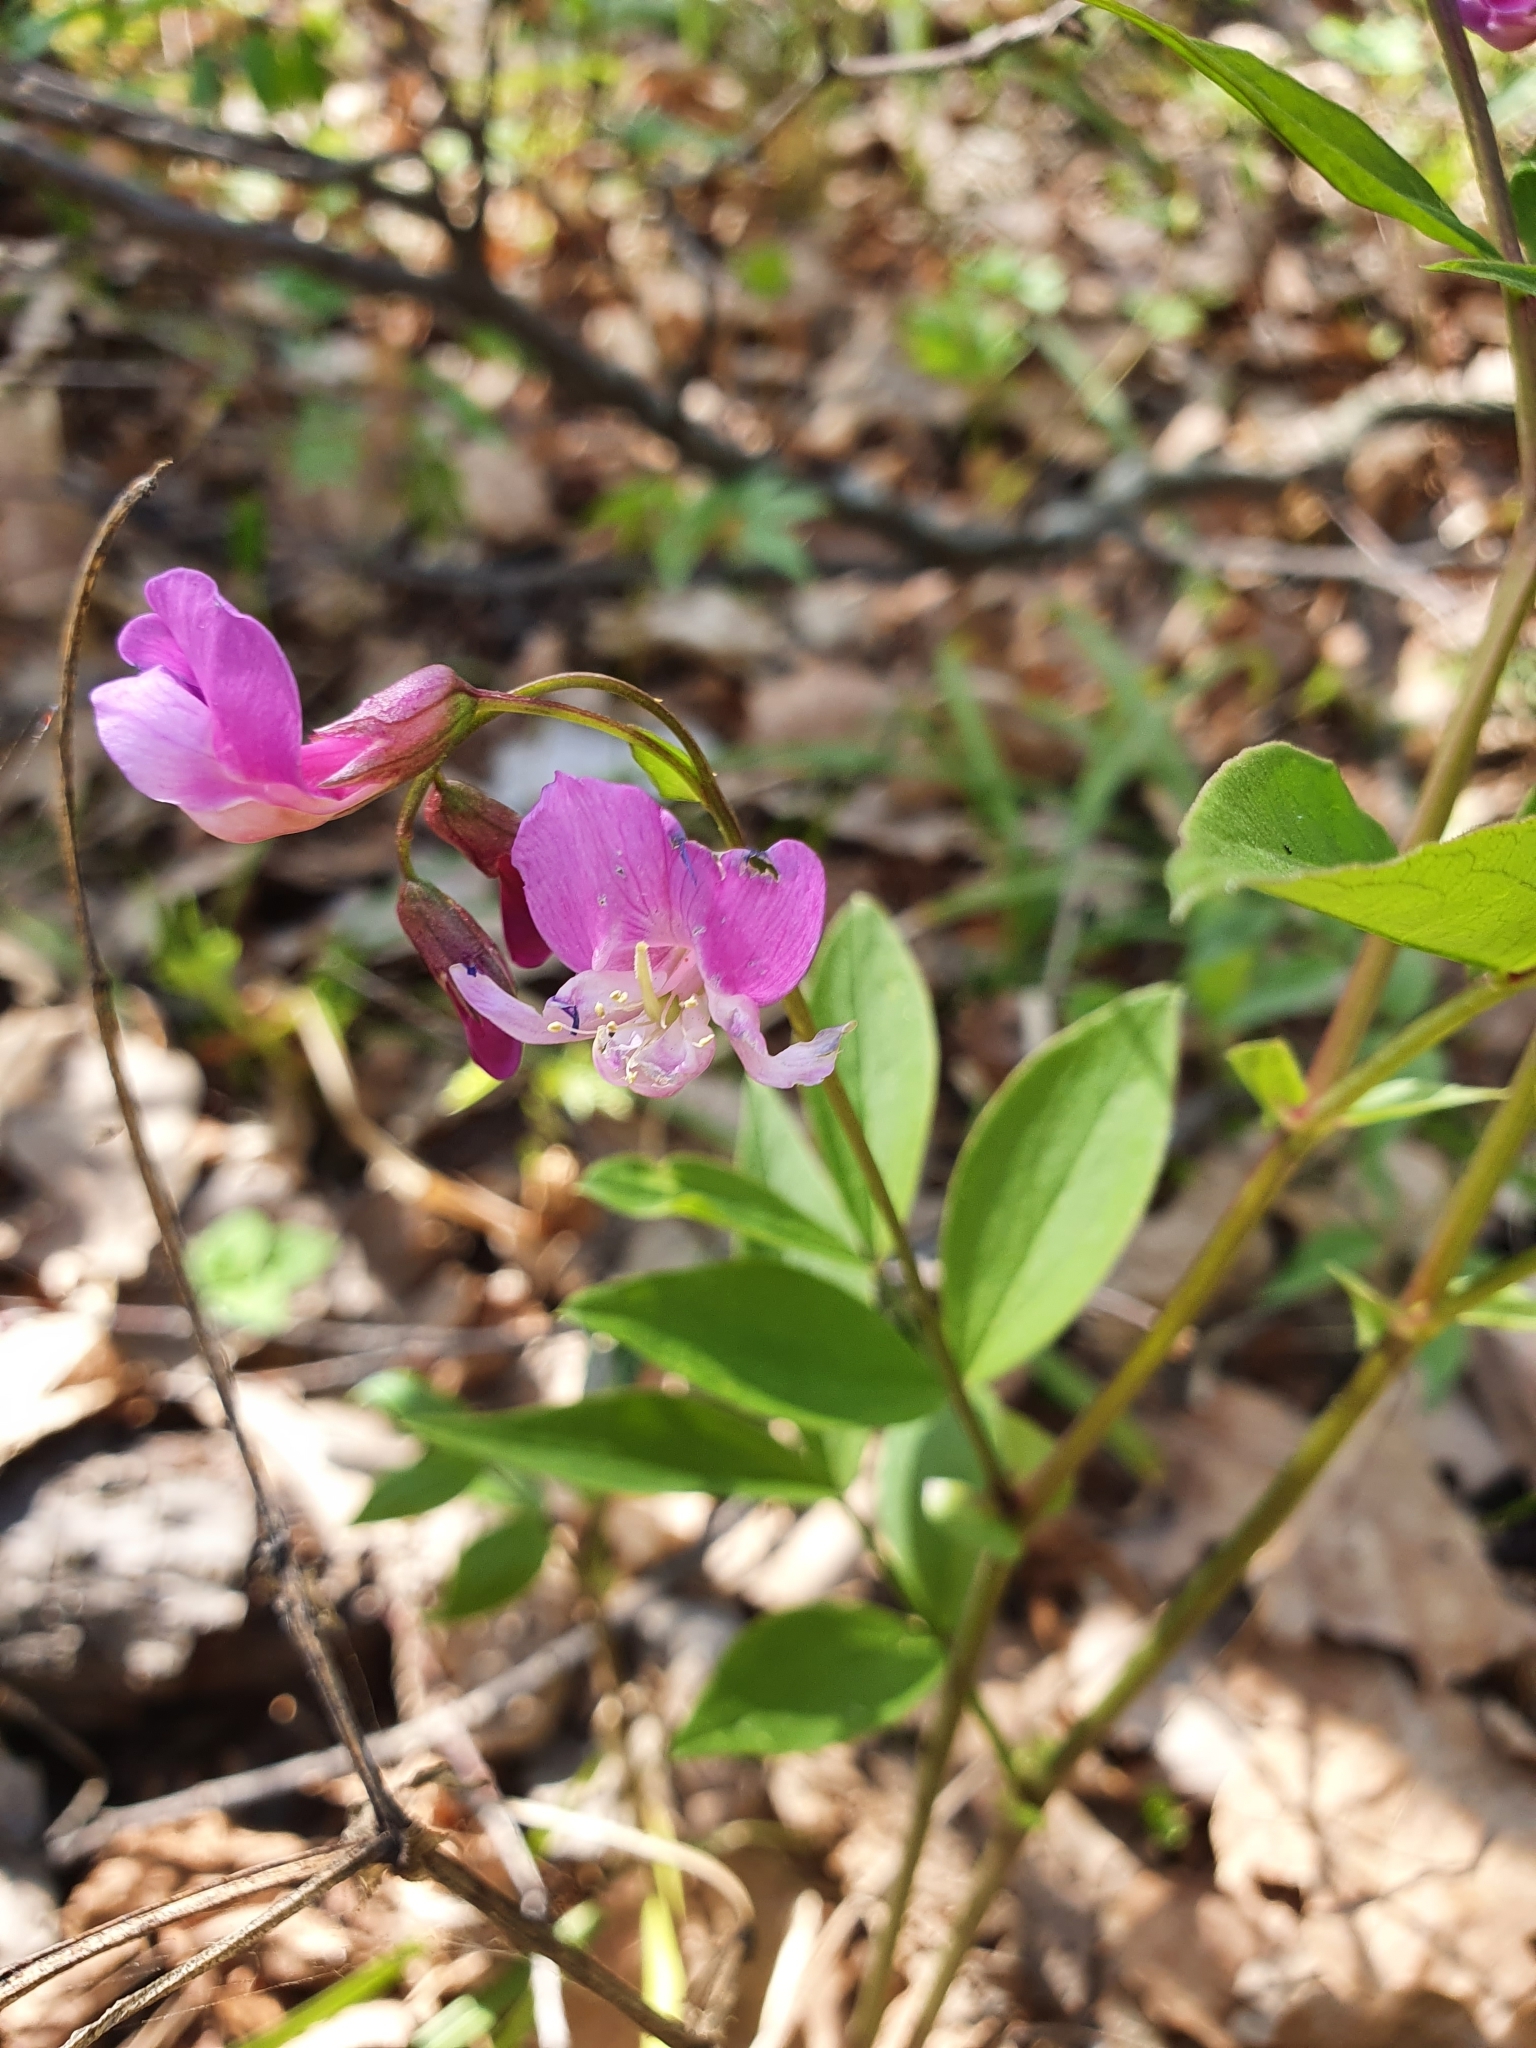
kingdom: Plantae
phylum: Tracheophyta
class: Magnoliopsida
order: Fabales
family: Fabaceae
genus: Lathyrus
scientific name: Lathyrus vernus
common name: Spring pea
